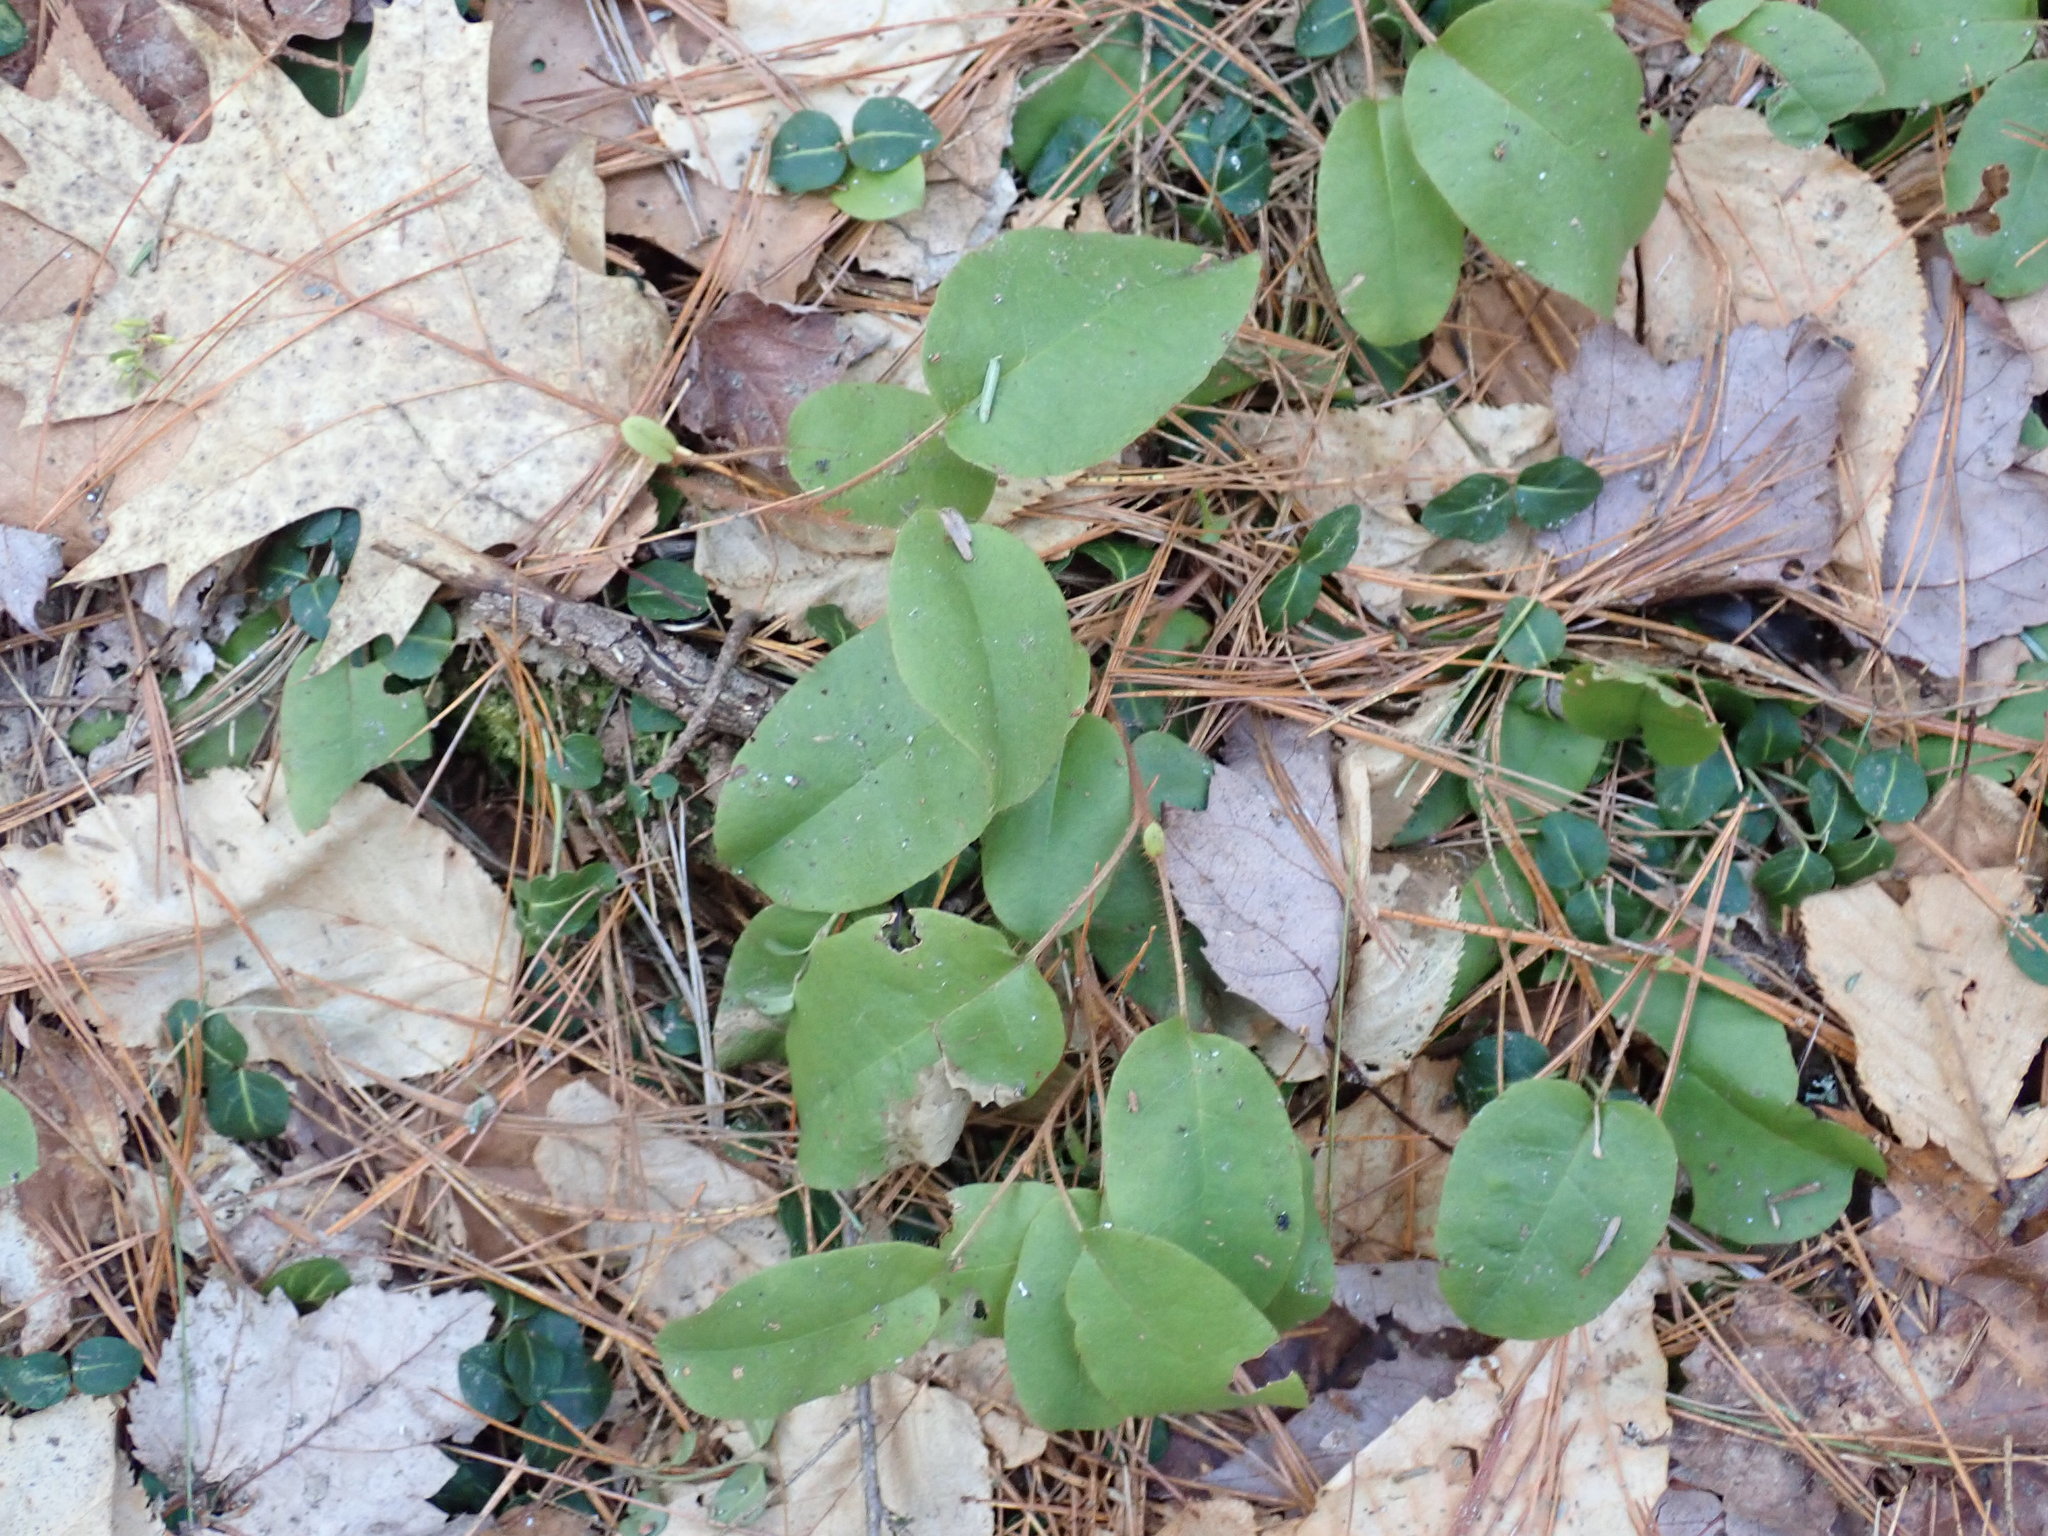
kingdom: Plantae
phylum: Tracheophyta
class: Magnoliopsida
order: Ericales
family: Ericaceae
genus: Epigaea
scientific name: Epigaea repens
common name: Gravelroot
